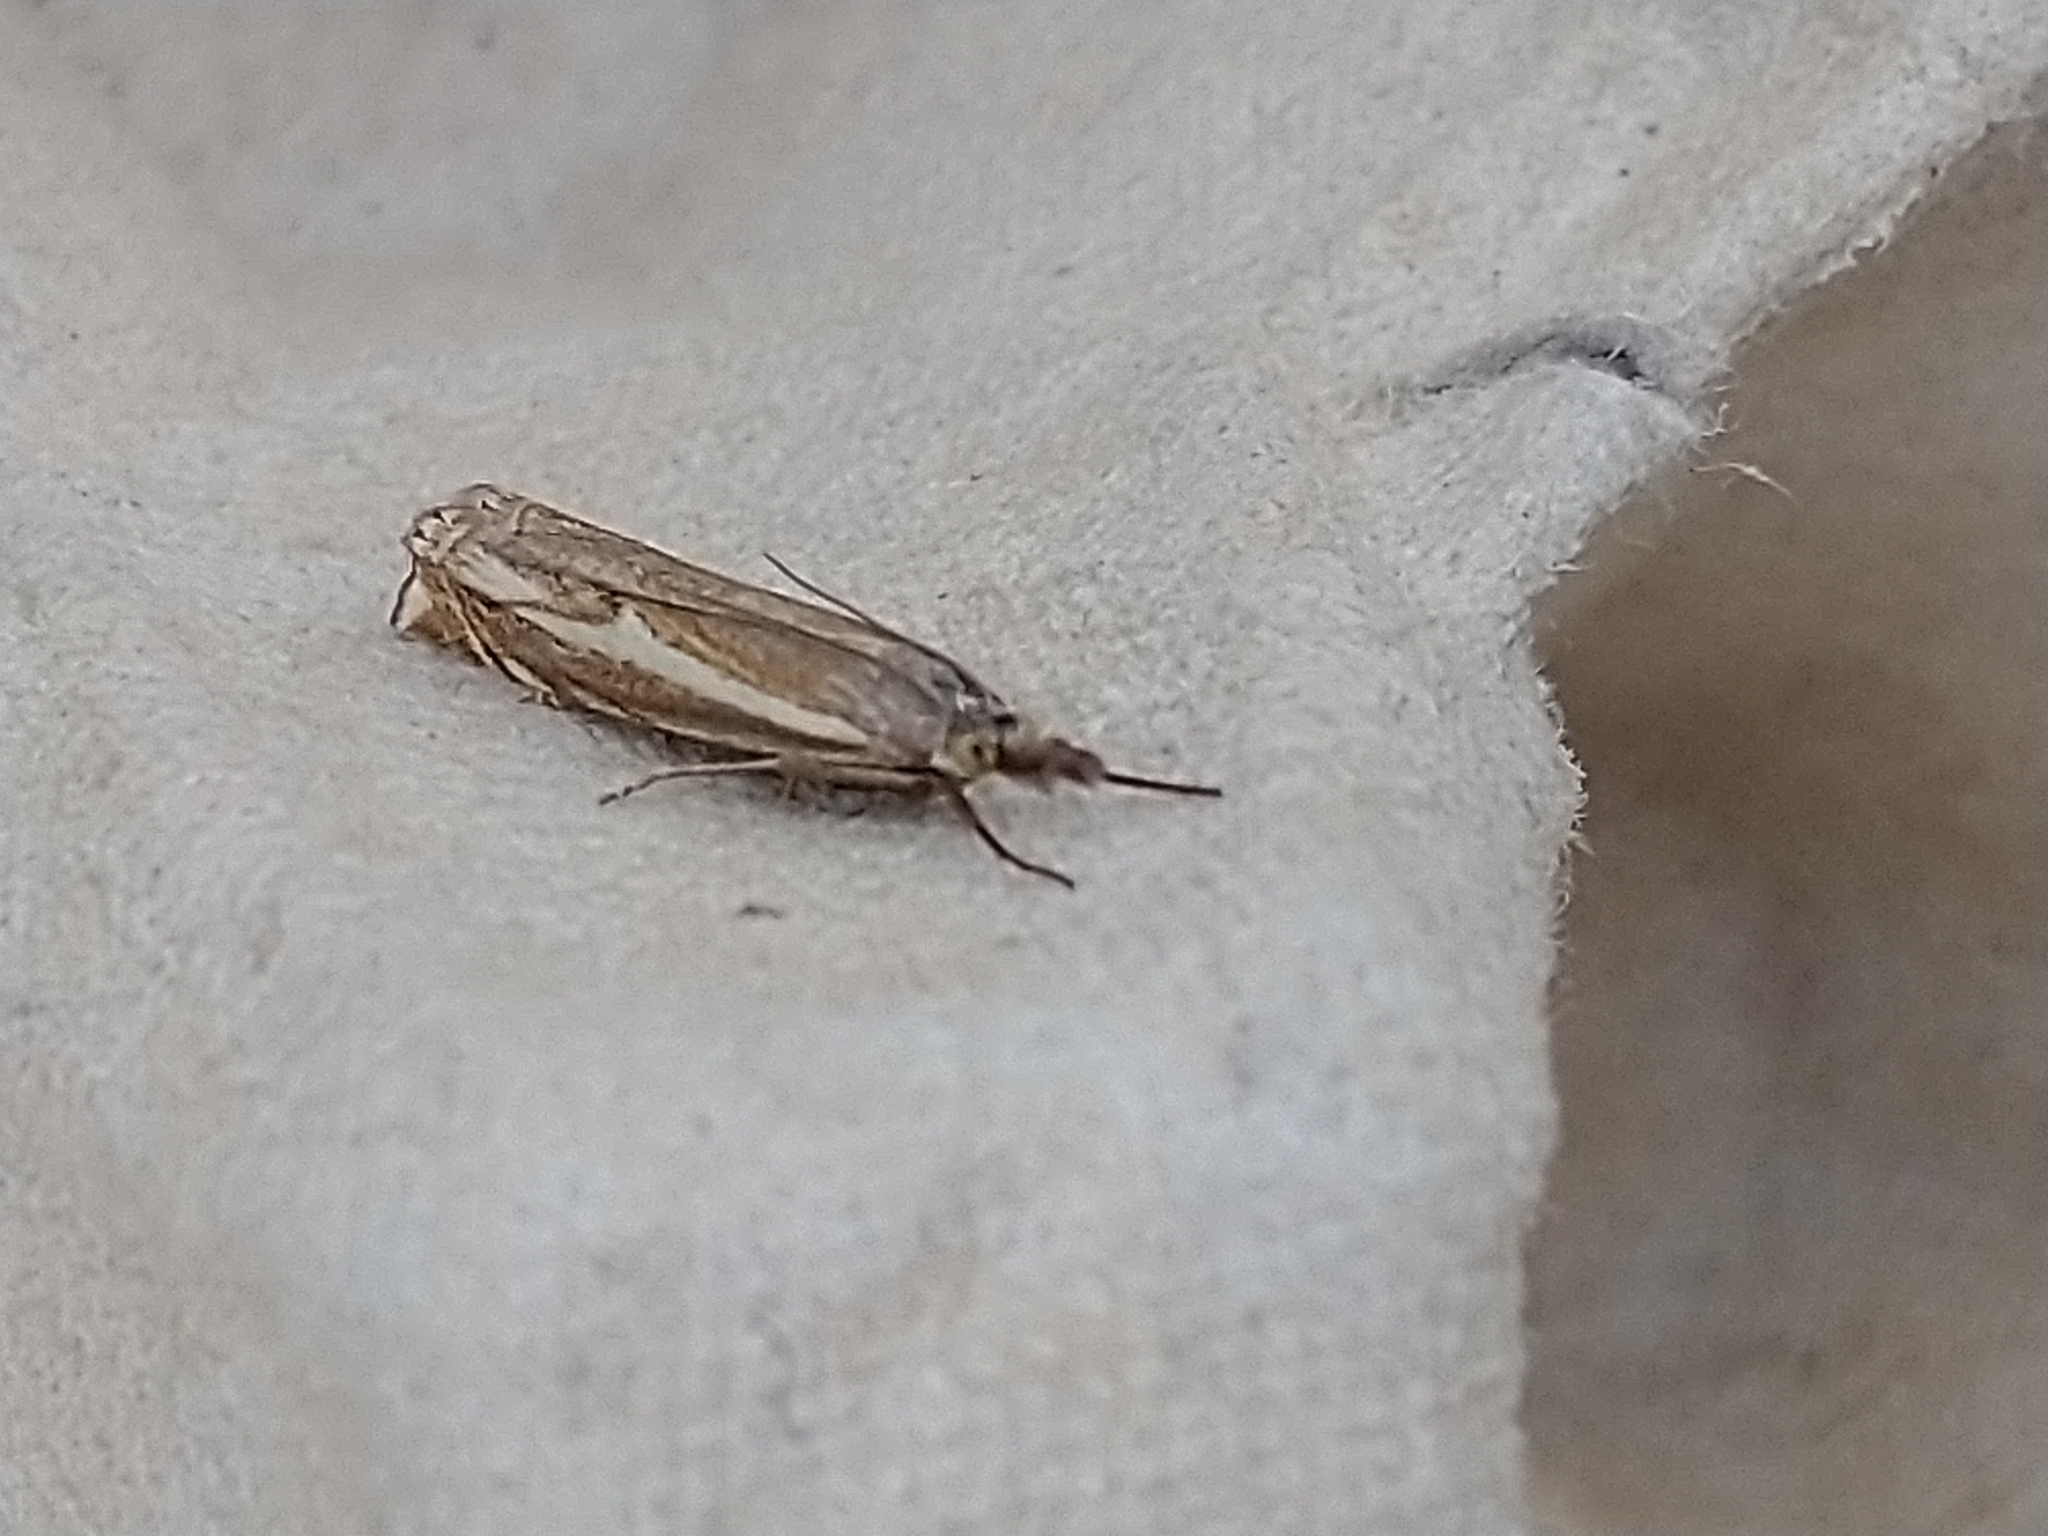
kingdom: Animalia
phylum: Arthropoda
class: Insecta
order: Lepidoptera
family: Crambidae
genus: Crambus
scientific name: Crambus nemorella
